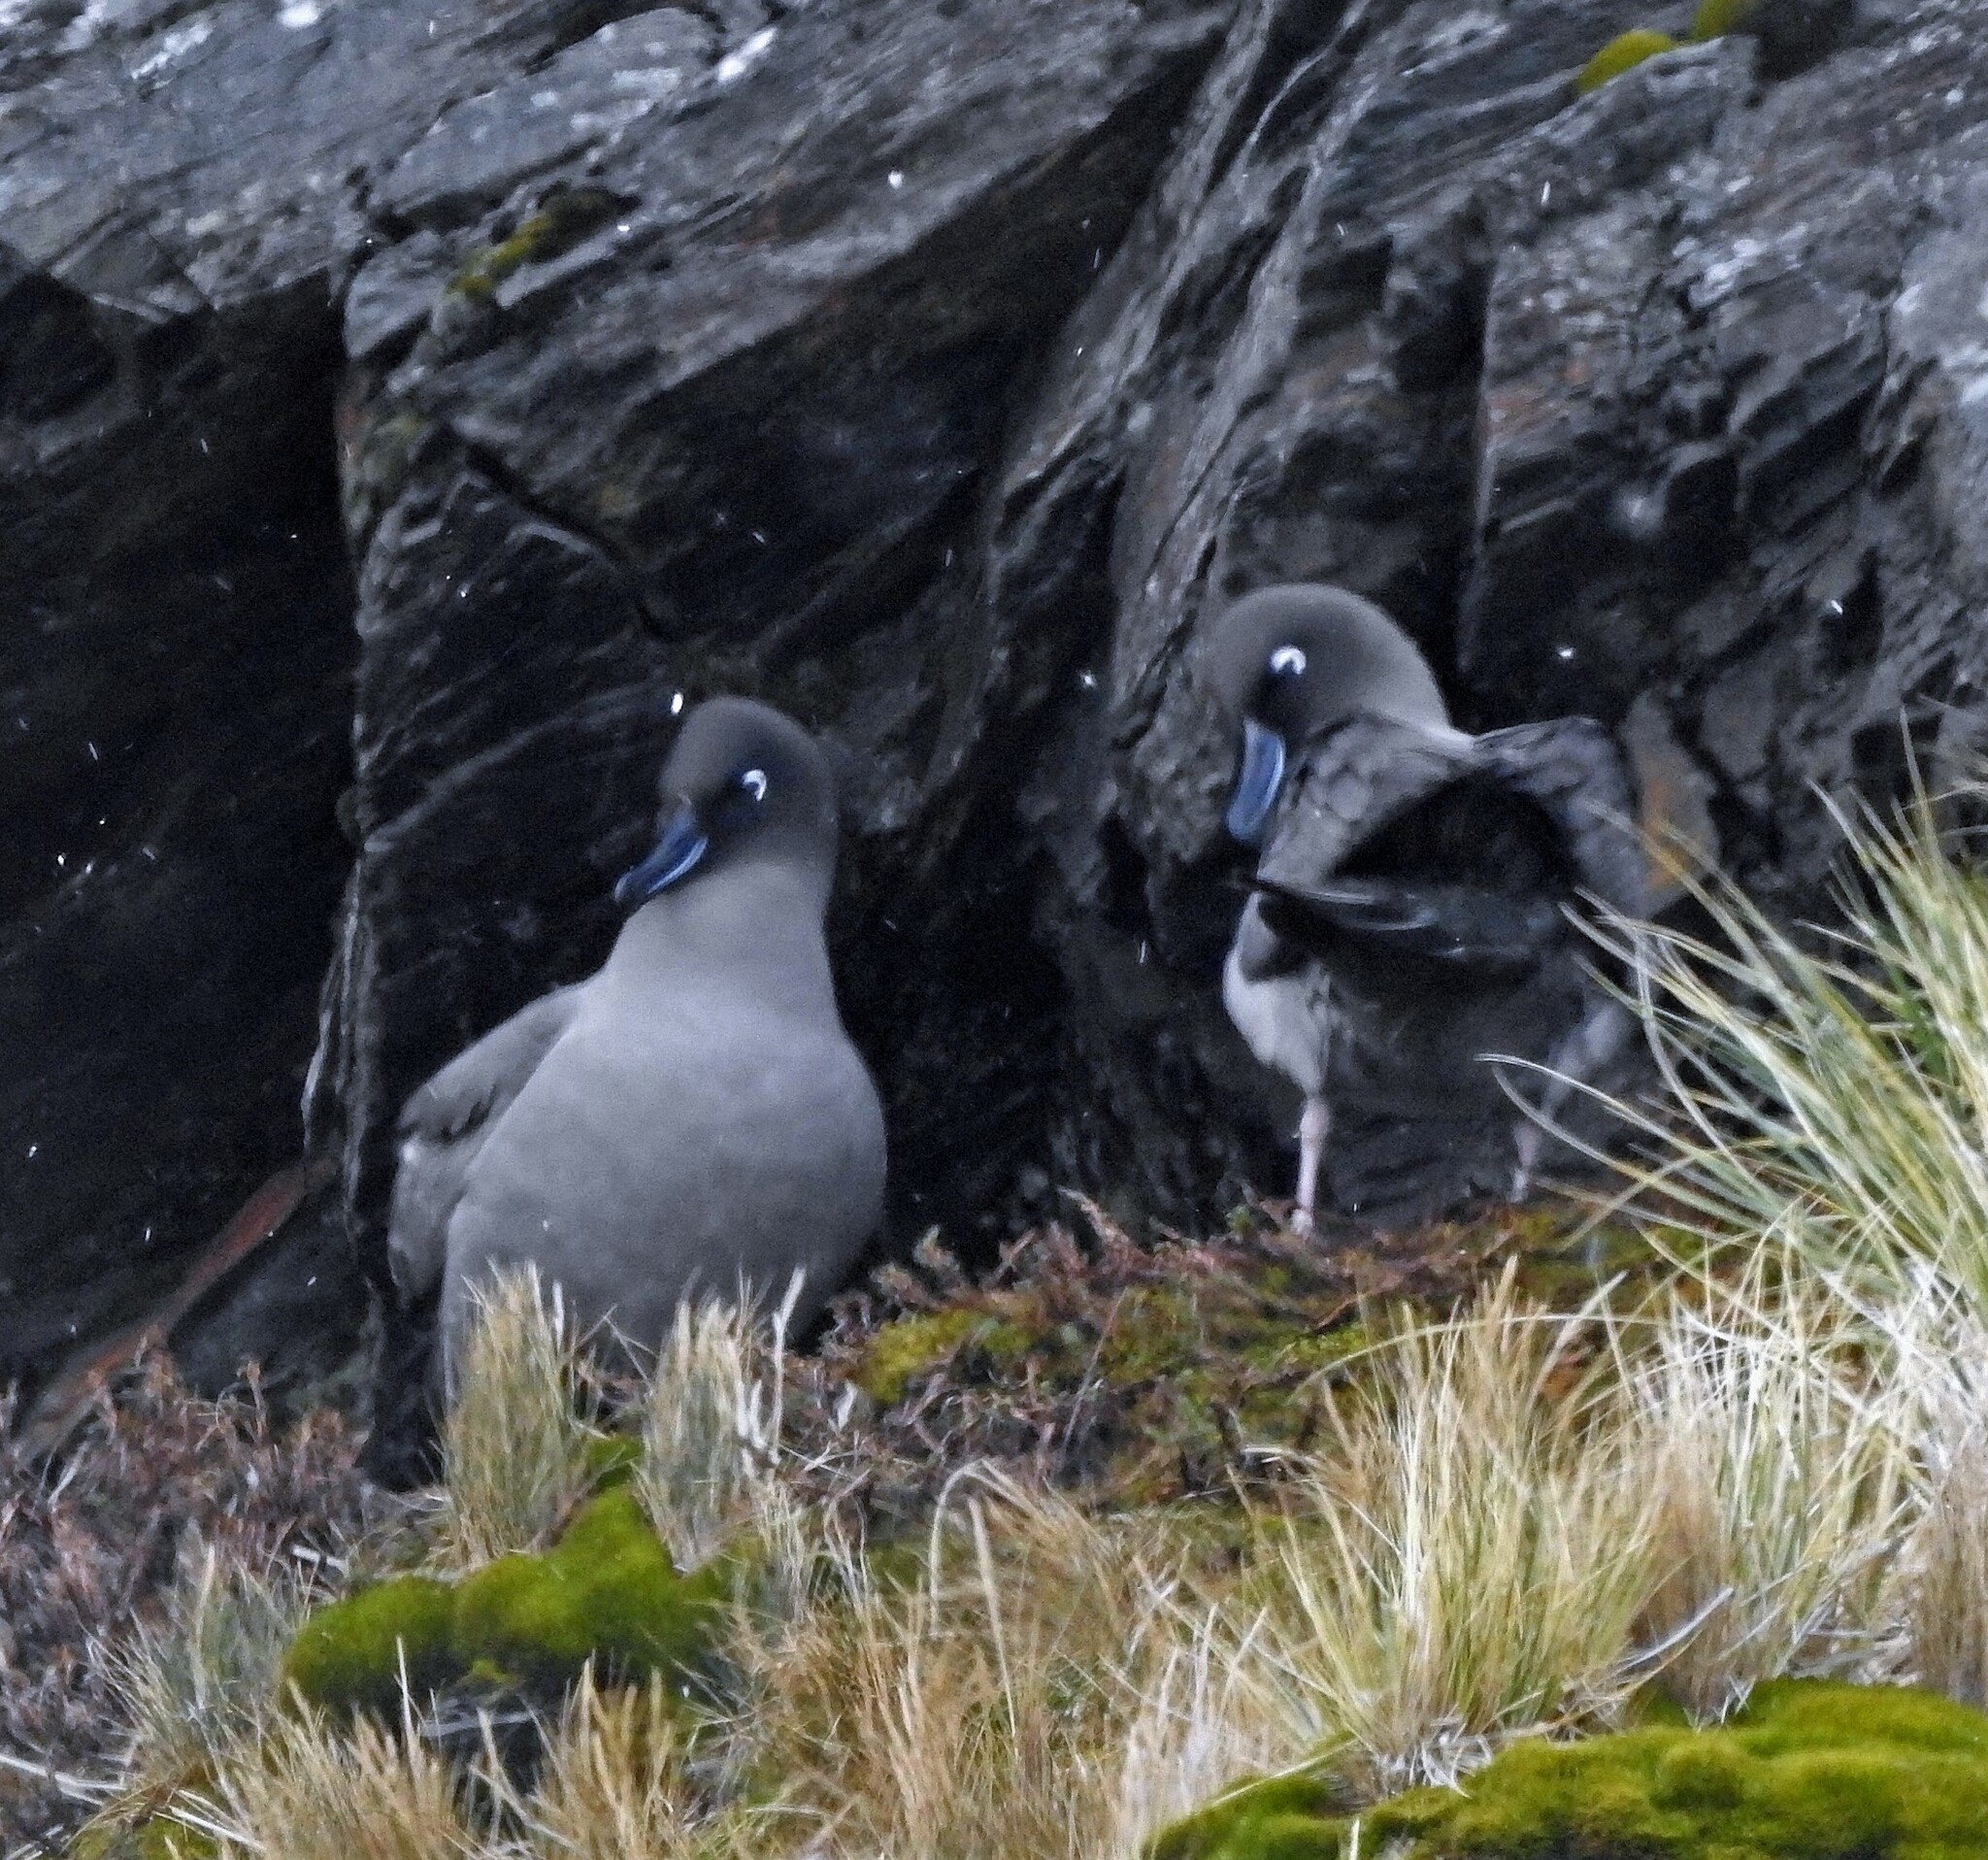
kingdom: Animalia
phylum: Chordata
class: Aves
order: Procellariiformes
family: Diomedeidae
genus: Phoebetria
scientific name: Phoebetria palpebrata
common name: Light-mantled albatross
